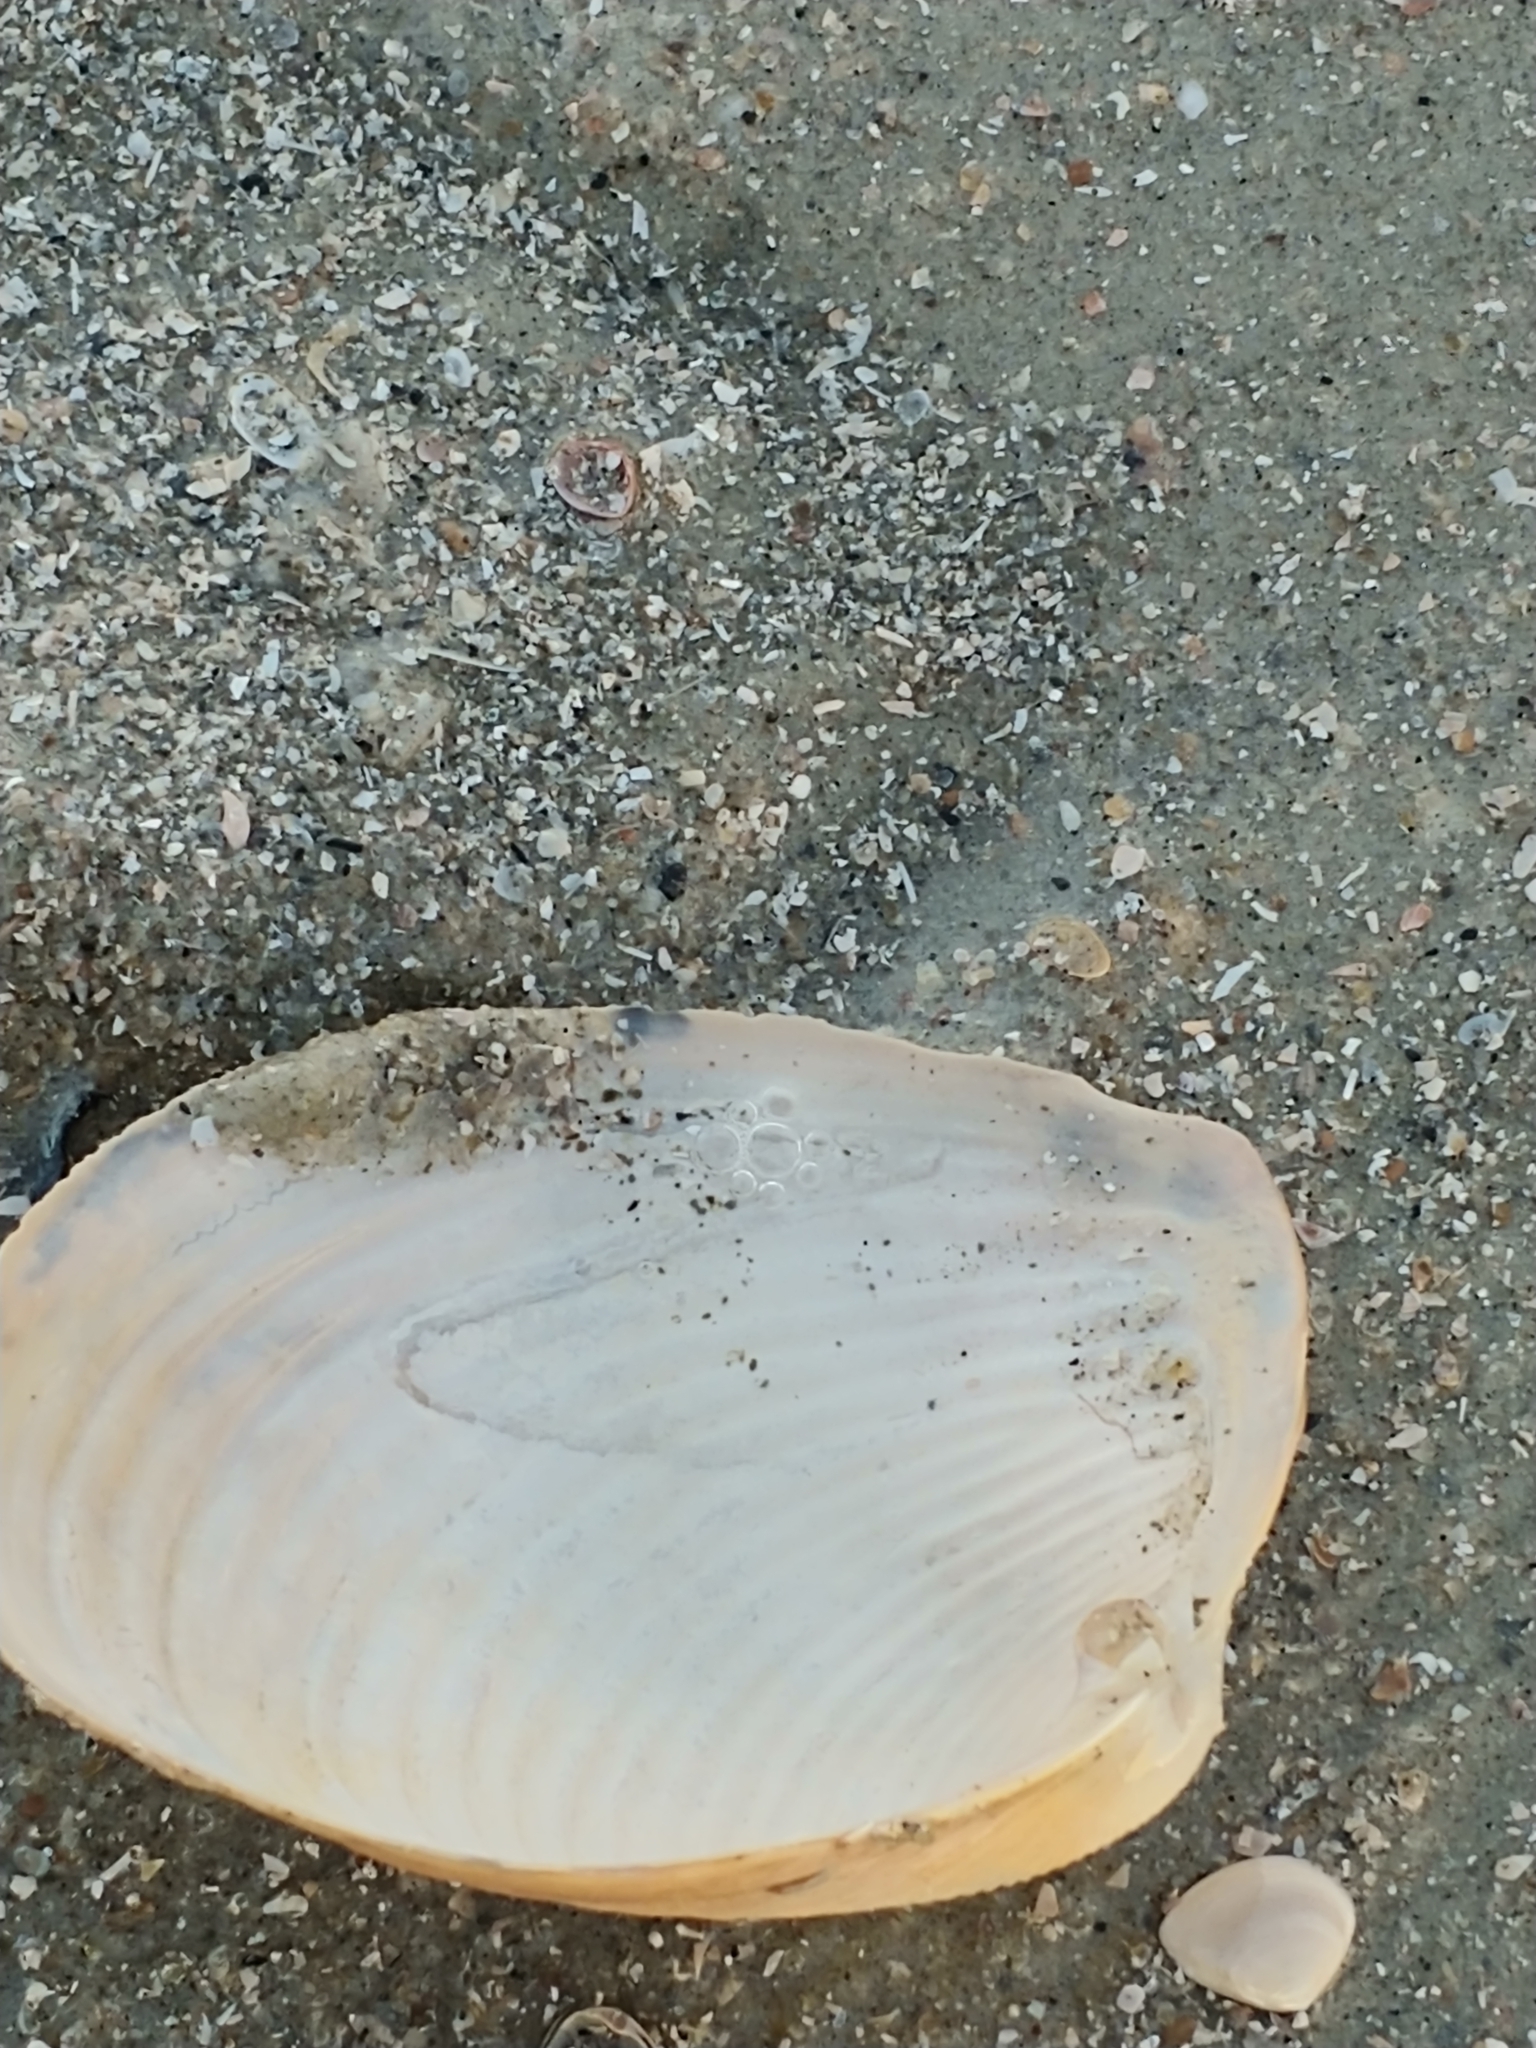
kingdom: Animalia
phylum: Mollusca
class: Bivalvia
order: Venerida
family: Anatinellidae
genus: Raeta
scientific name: Raeta plicatella
